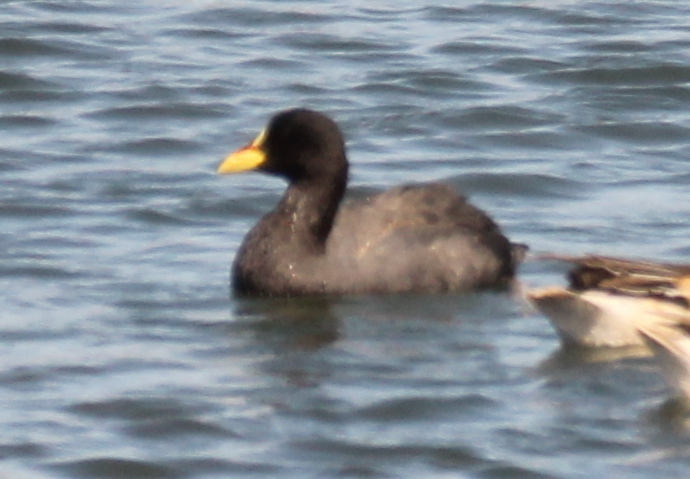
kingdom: Animalia
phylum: Chordata
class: Aves
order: Gruiformes
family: Rallidae
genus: Fulica
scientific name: Fulica armillata
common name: Red-gartered coot
